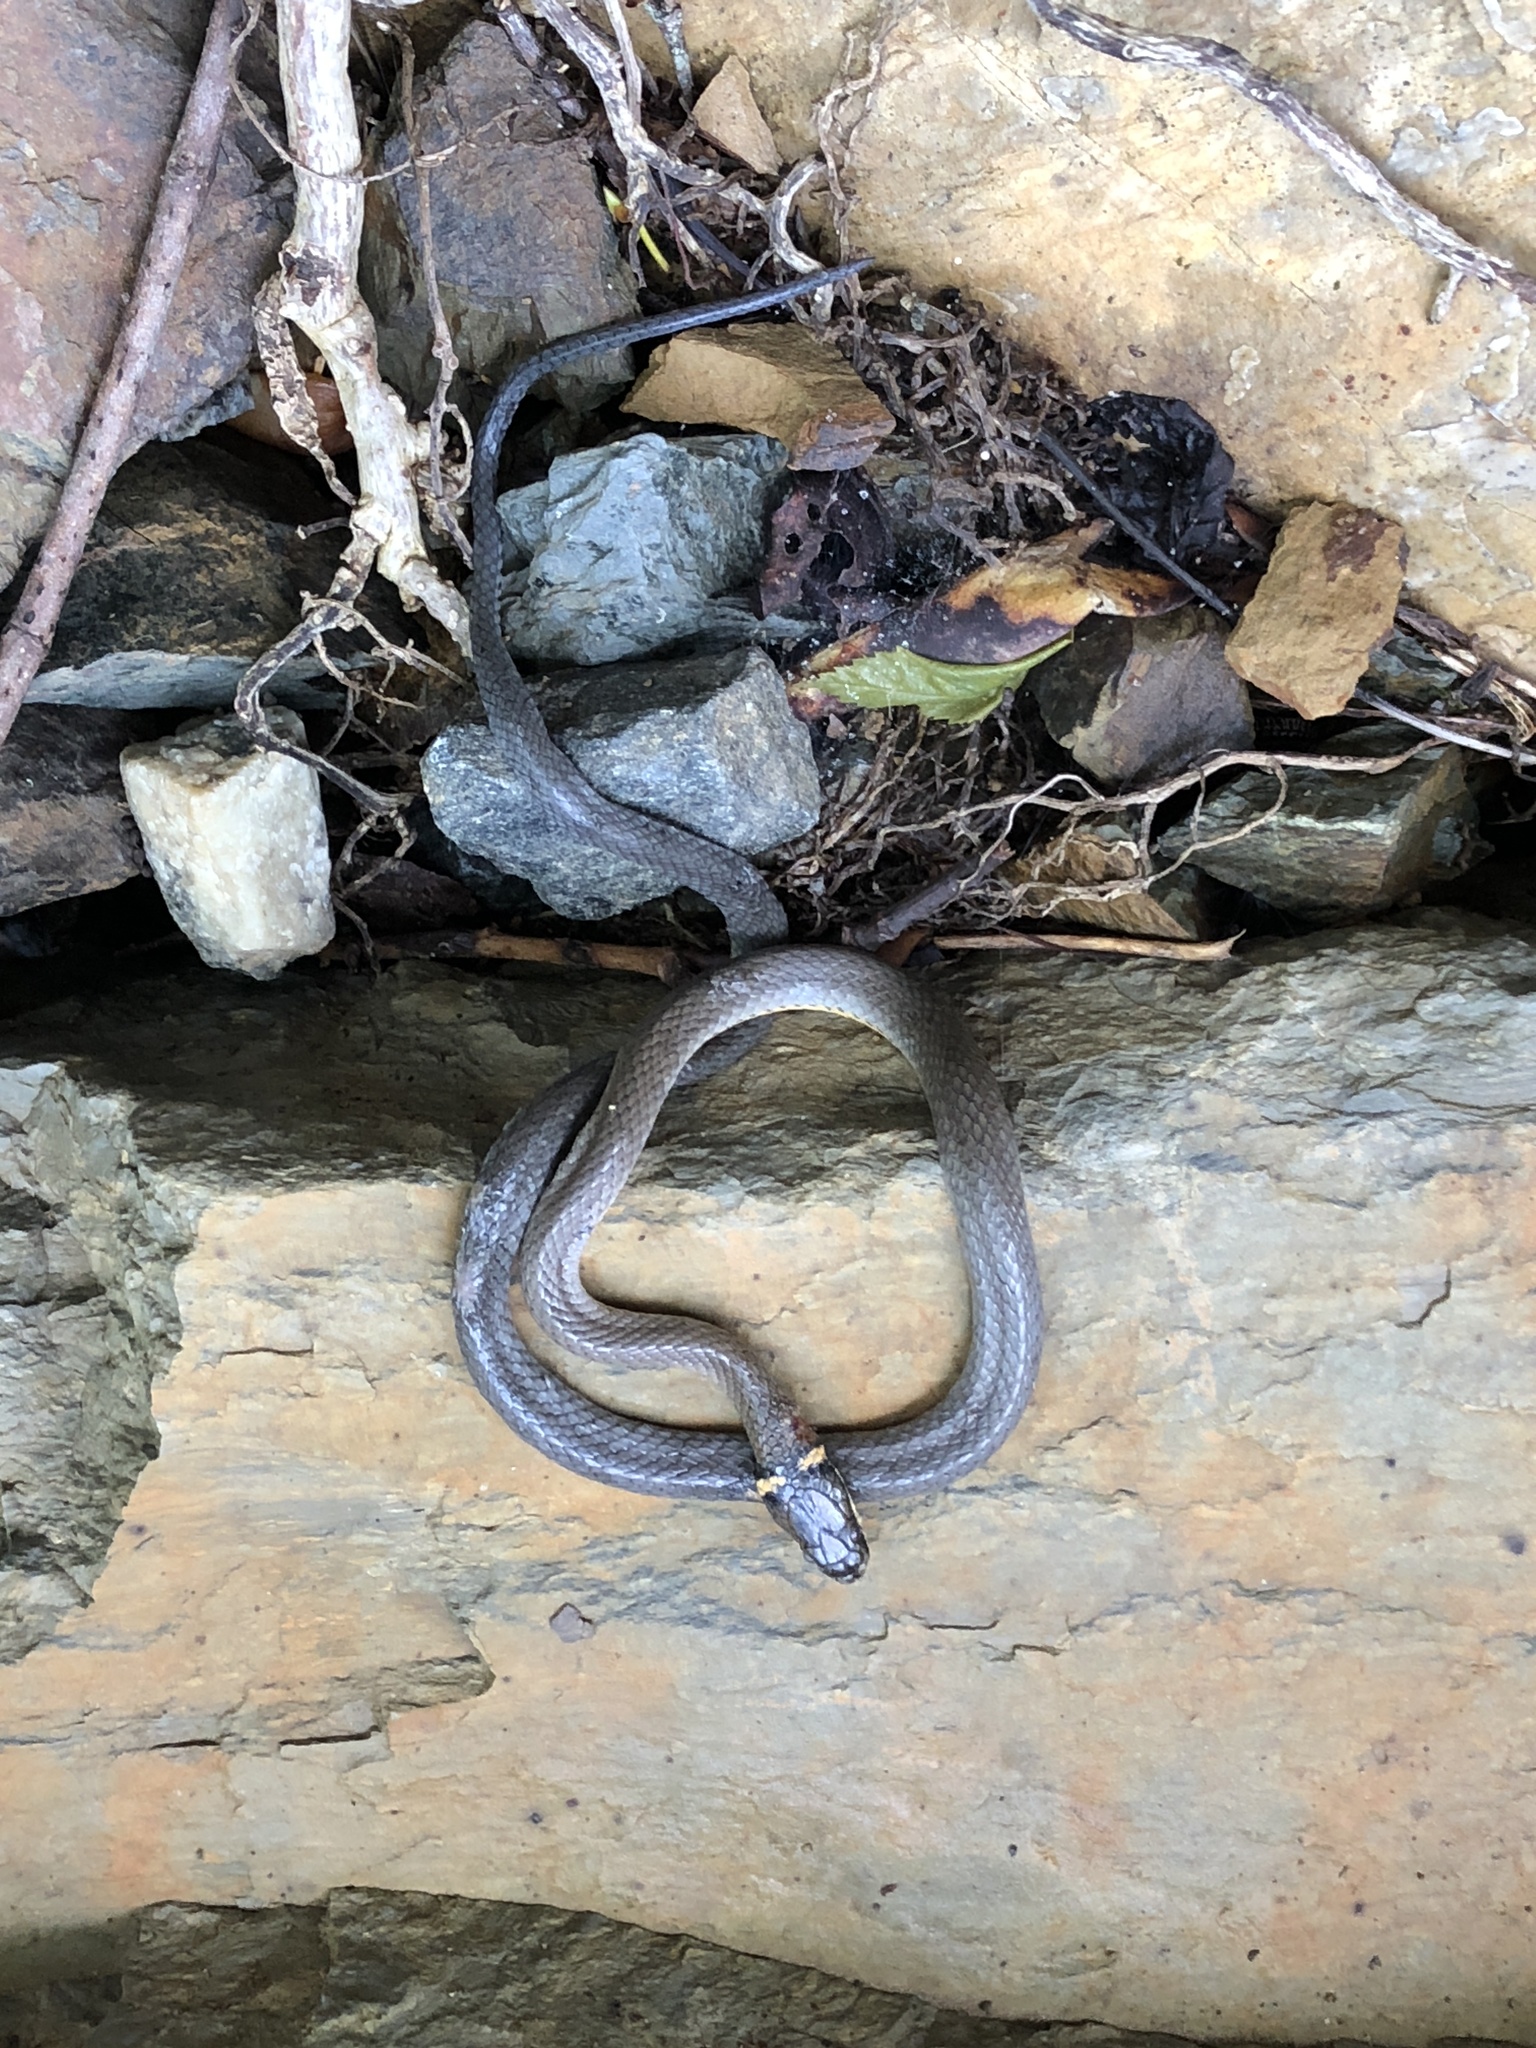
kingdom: Animalia
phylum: Chordata
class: Squamata
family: Colubridae
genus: Diadophis
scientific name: Diadophis punctatus
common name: Ringneck snake
